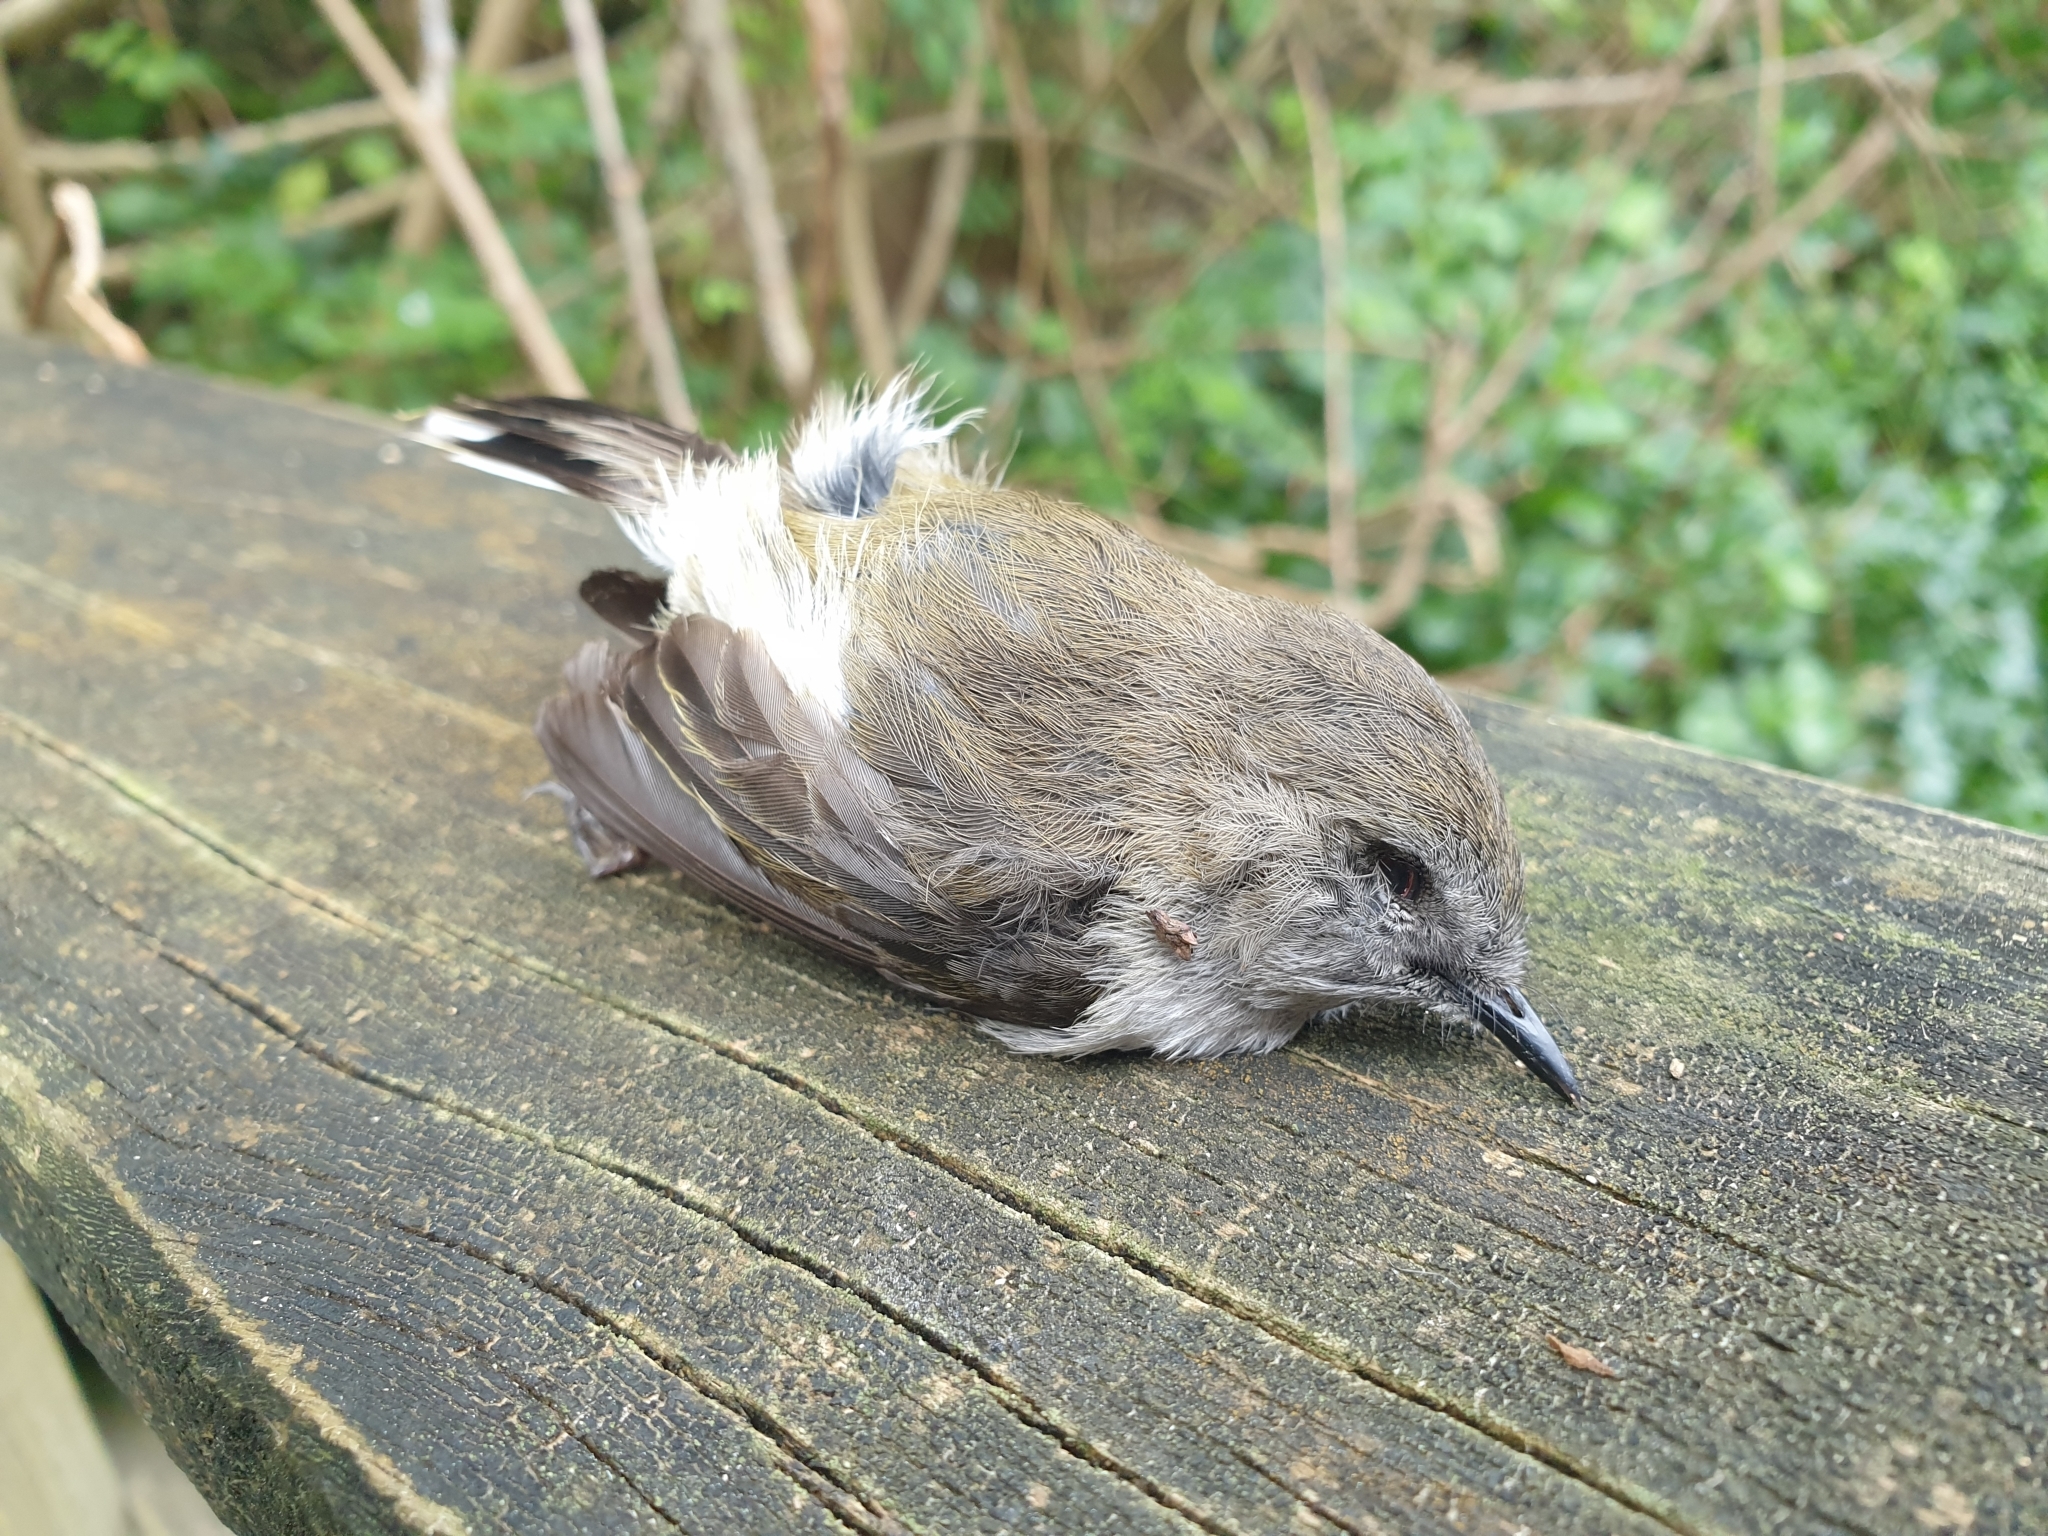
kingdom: Animalia
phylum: Chordata
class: Aves
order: Passeriformes
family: Acanthizidae
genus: Gerygone
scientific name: Gerygone igata
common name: Grey gerygone
